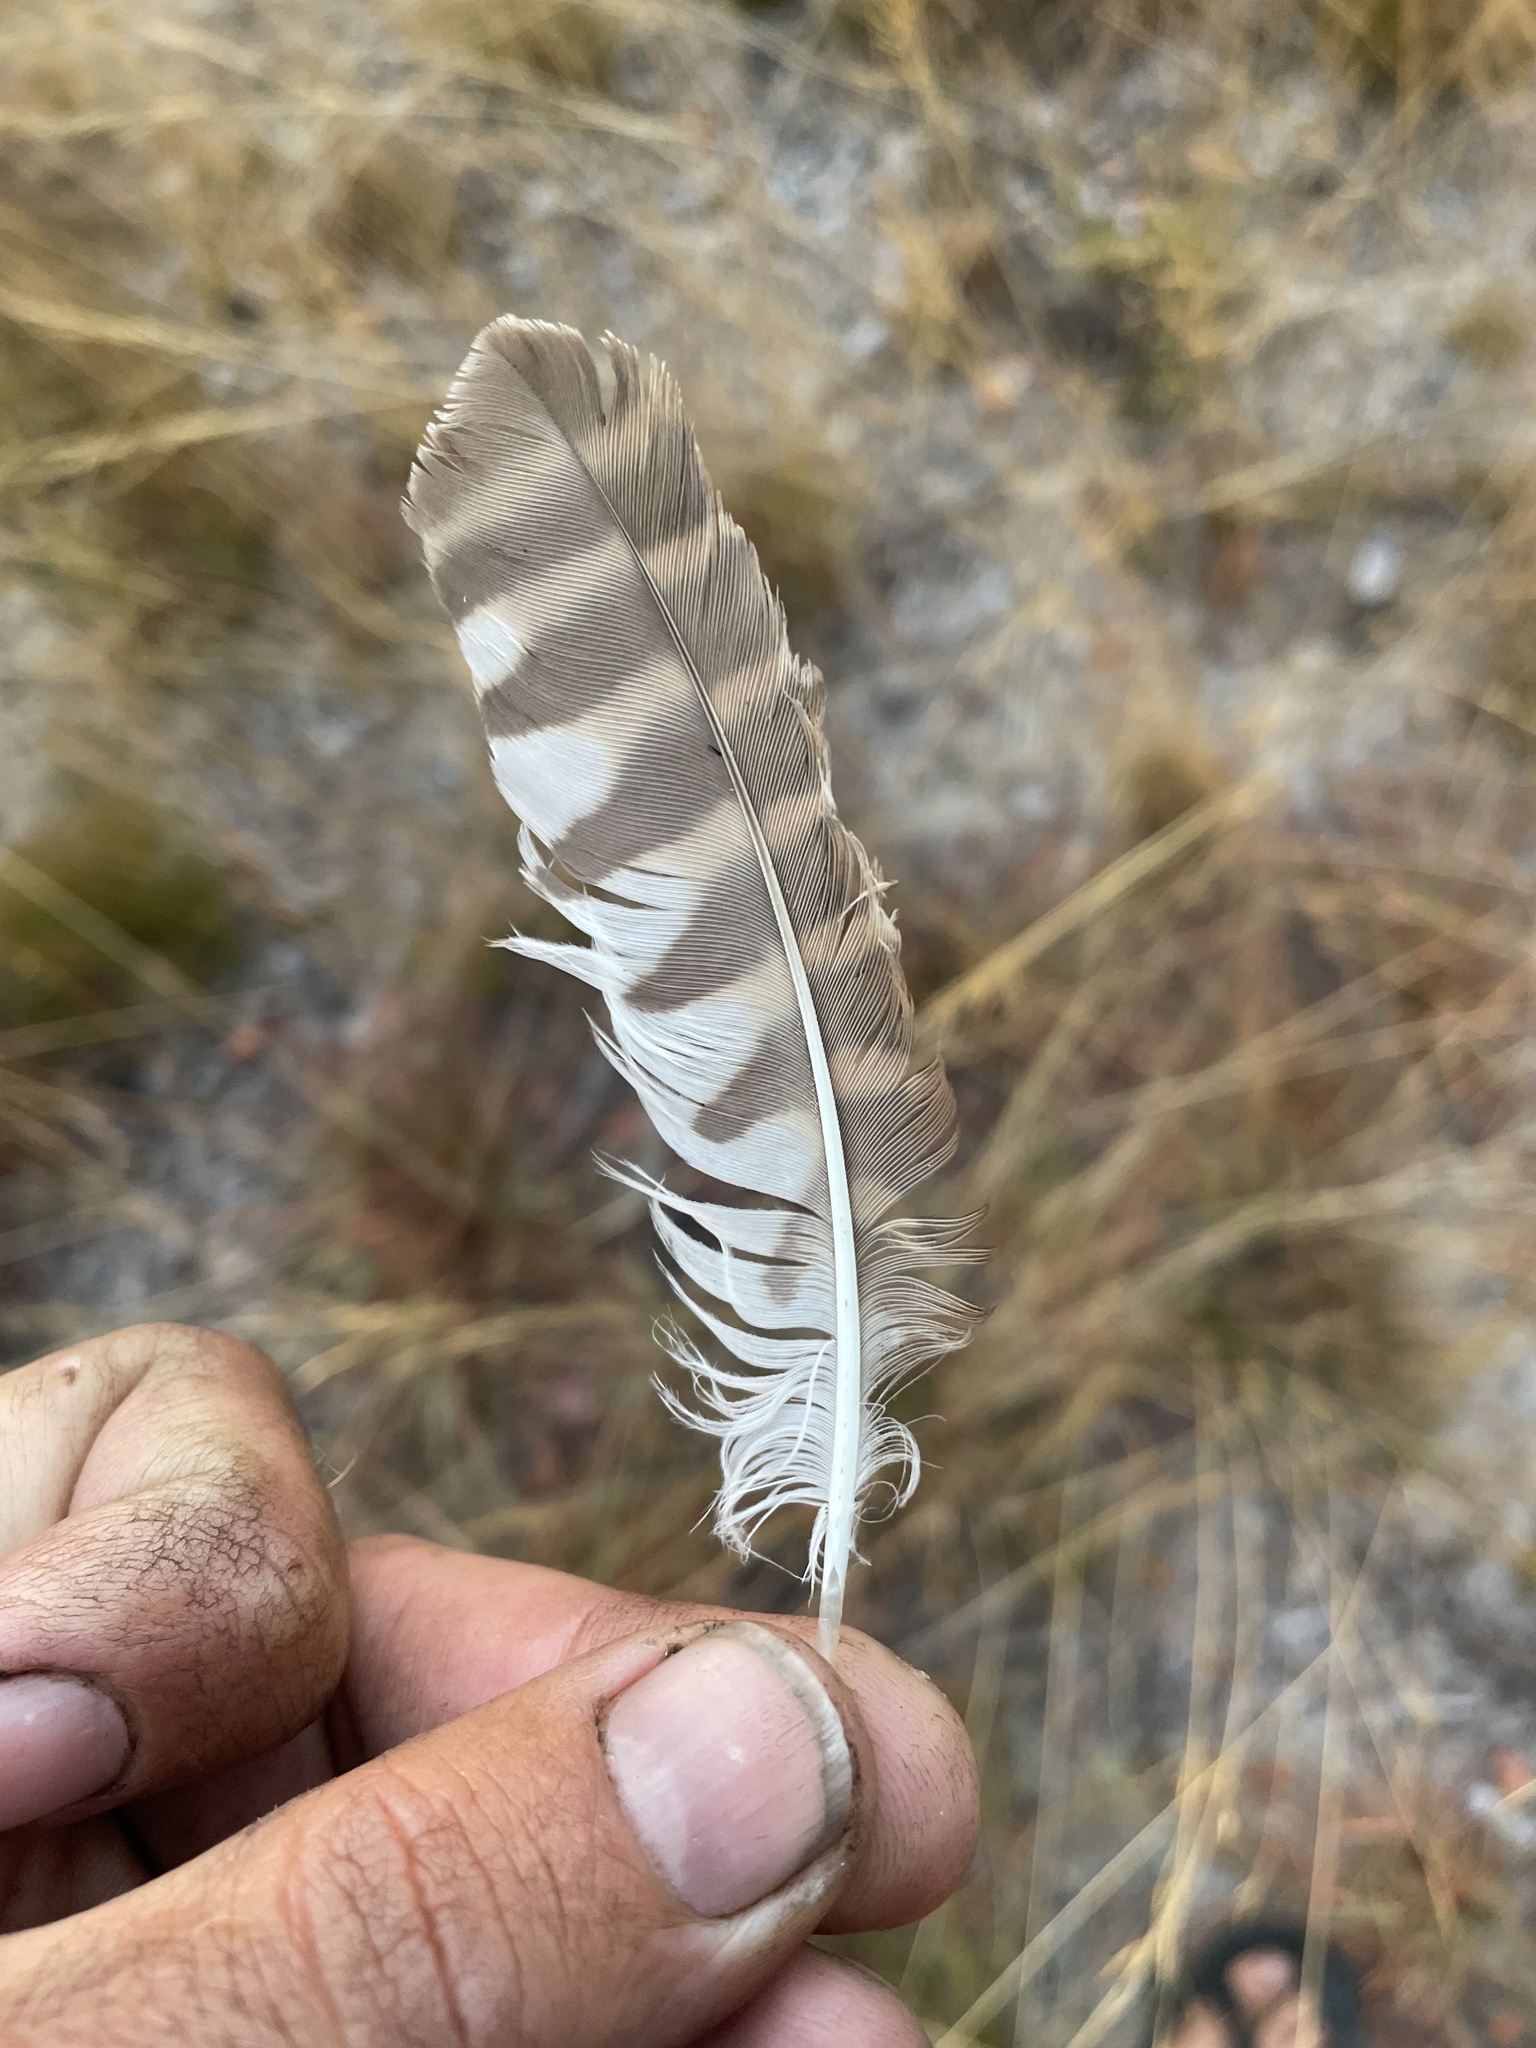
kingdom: Animalia
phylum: Chordata
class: Aves
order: Strigiformes
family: Strigidae
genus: Glaucidium
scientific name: Glaucidium capense
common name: African barred owlet
